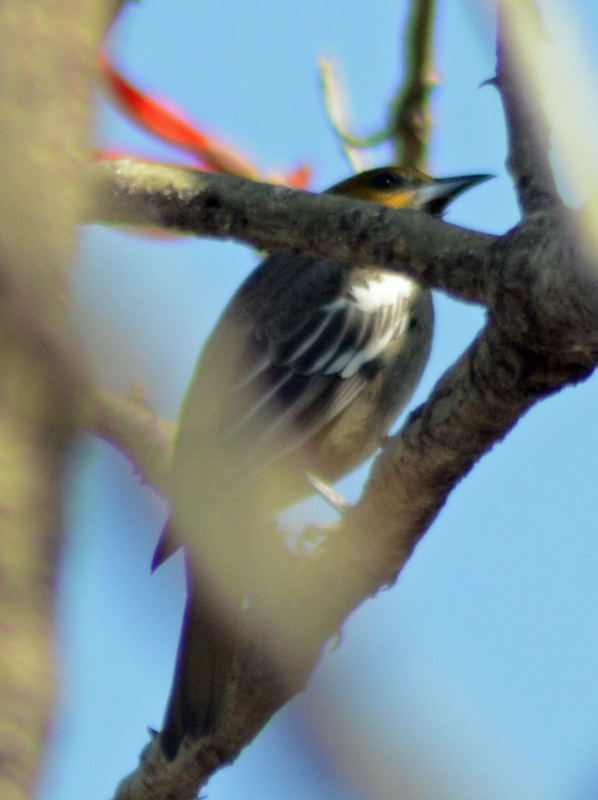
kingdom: Animalia
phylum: Chordata
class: Aves
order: Passeriformes
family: Icteridae
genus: Icterus
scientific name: Icterus abeillei
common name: Black-backed oriole
